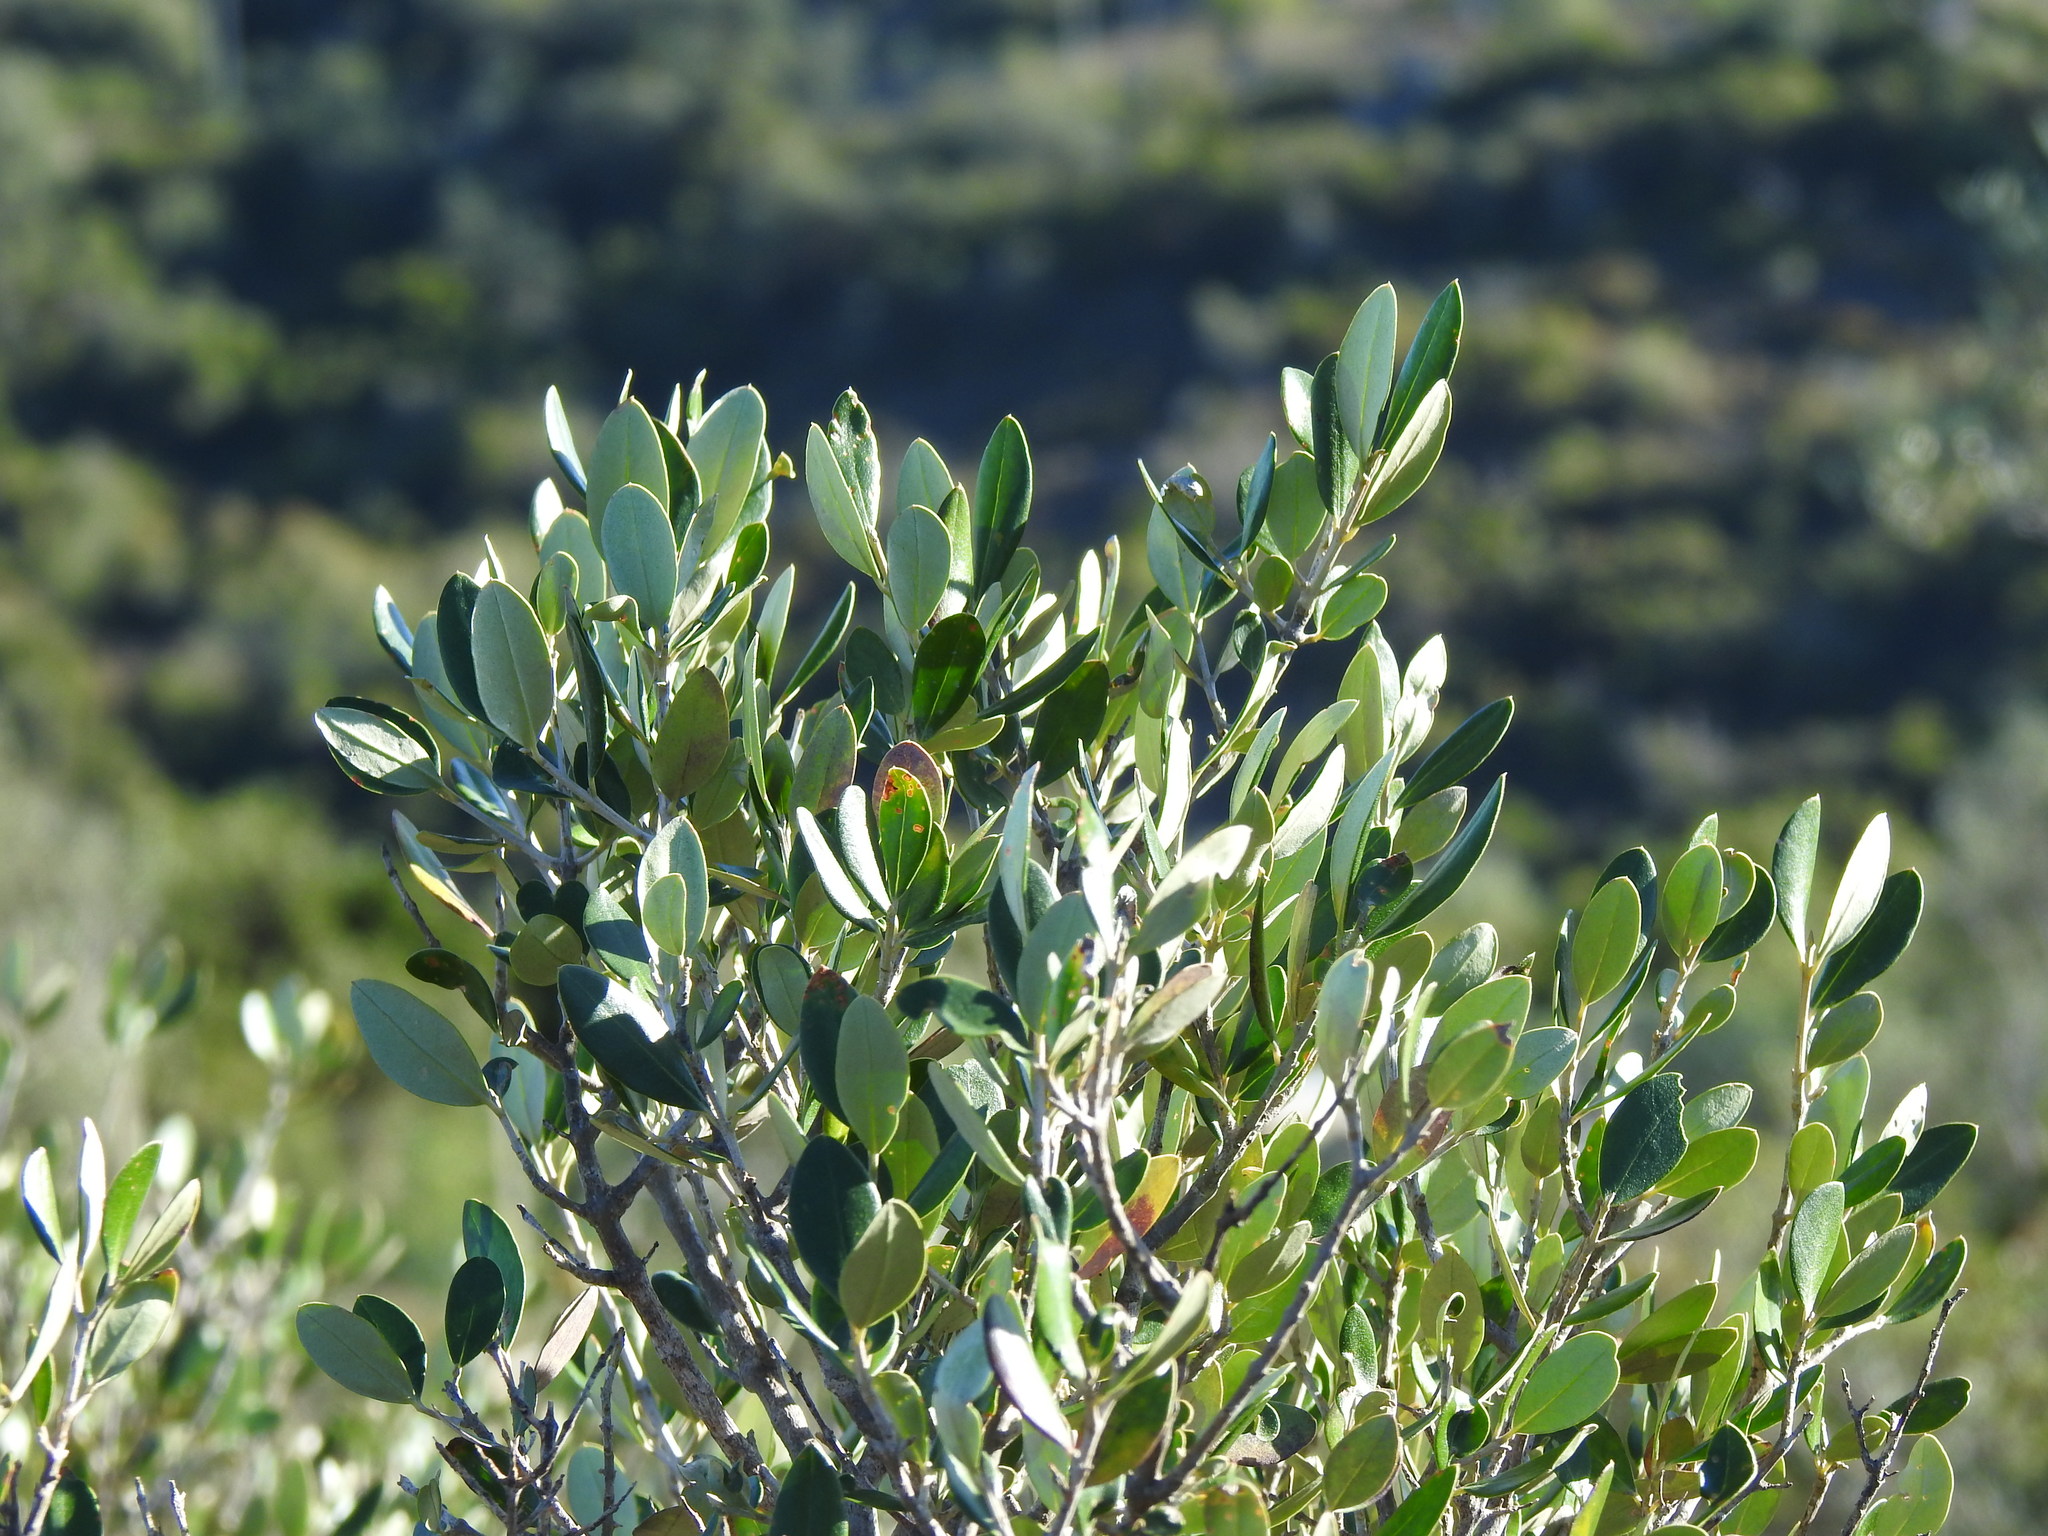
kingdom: Plantae
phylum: Tracheophyta
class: Magnoliopsida
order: Lamiales
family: Oleaceae
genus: Olea
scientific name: Olea europaea
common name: Olive
